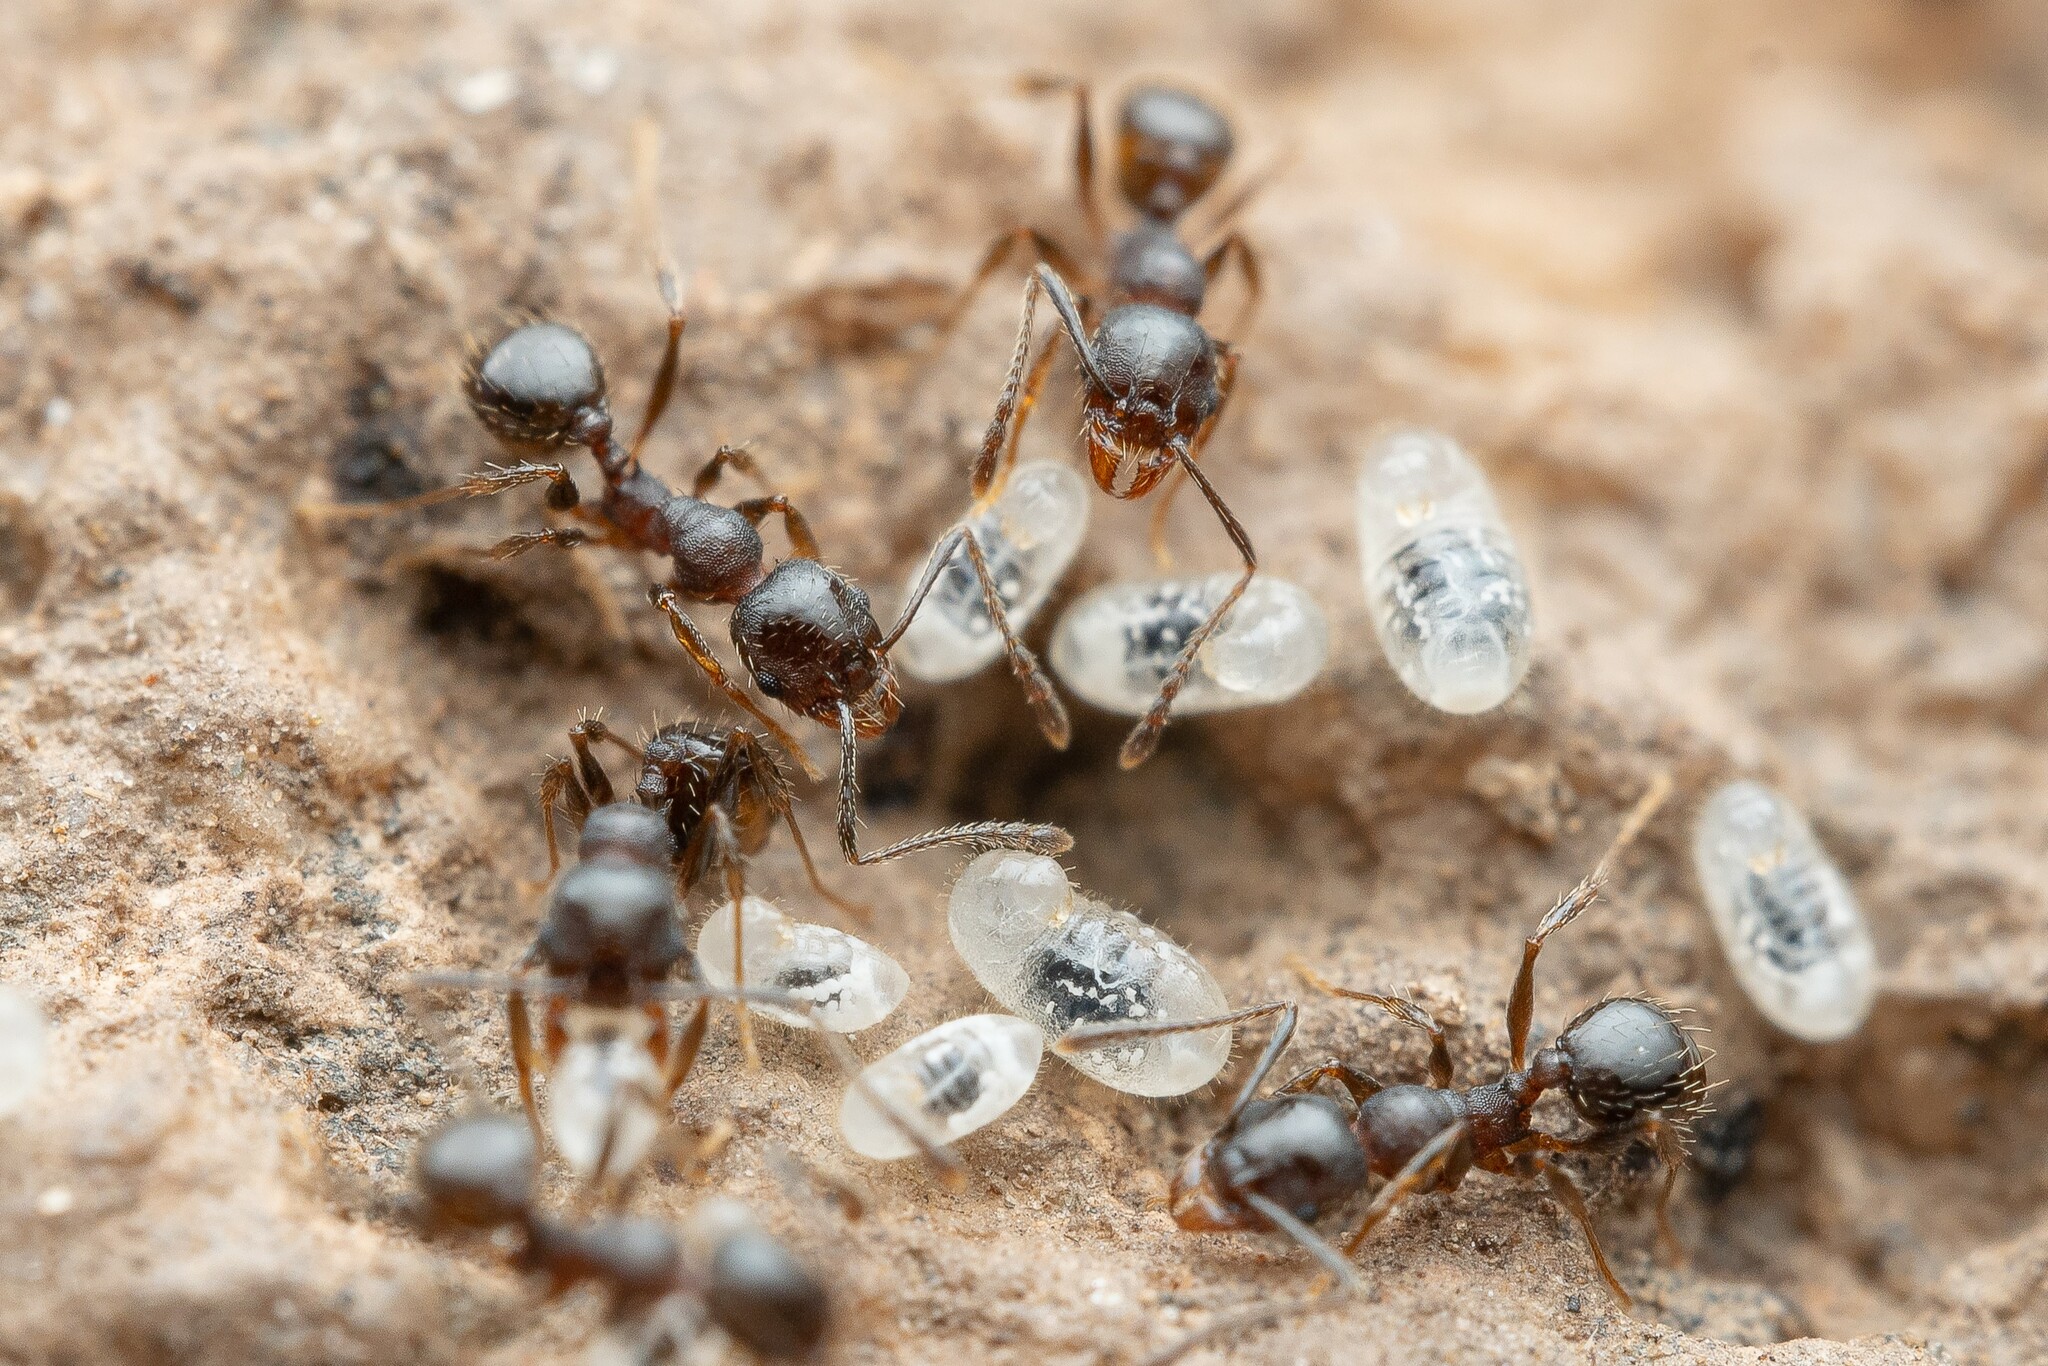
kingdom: Animalia
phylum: Arthropoda
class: Insecta
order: Hymenoptera
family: Formicidae
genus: Pheidole
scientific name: Pheidole sciophila
